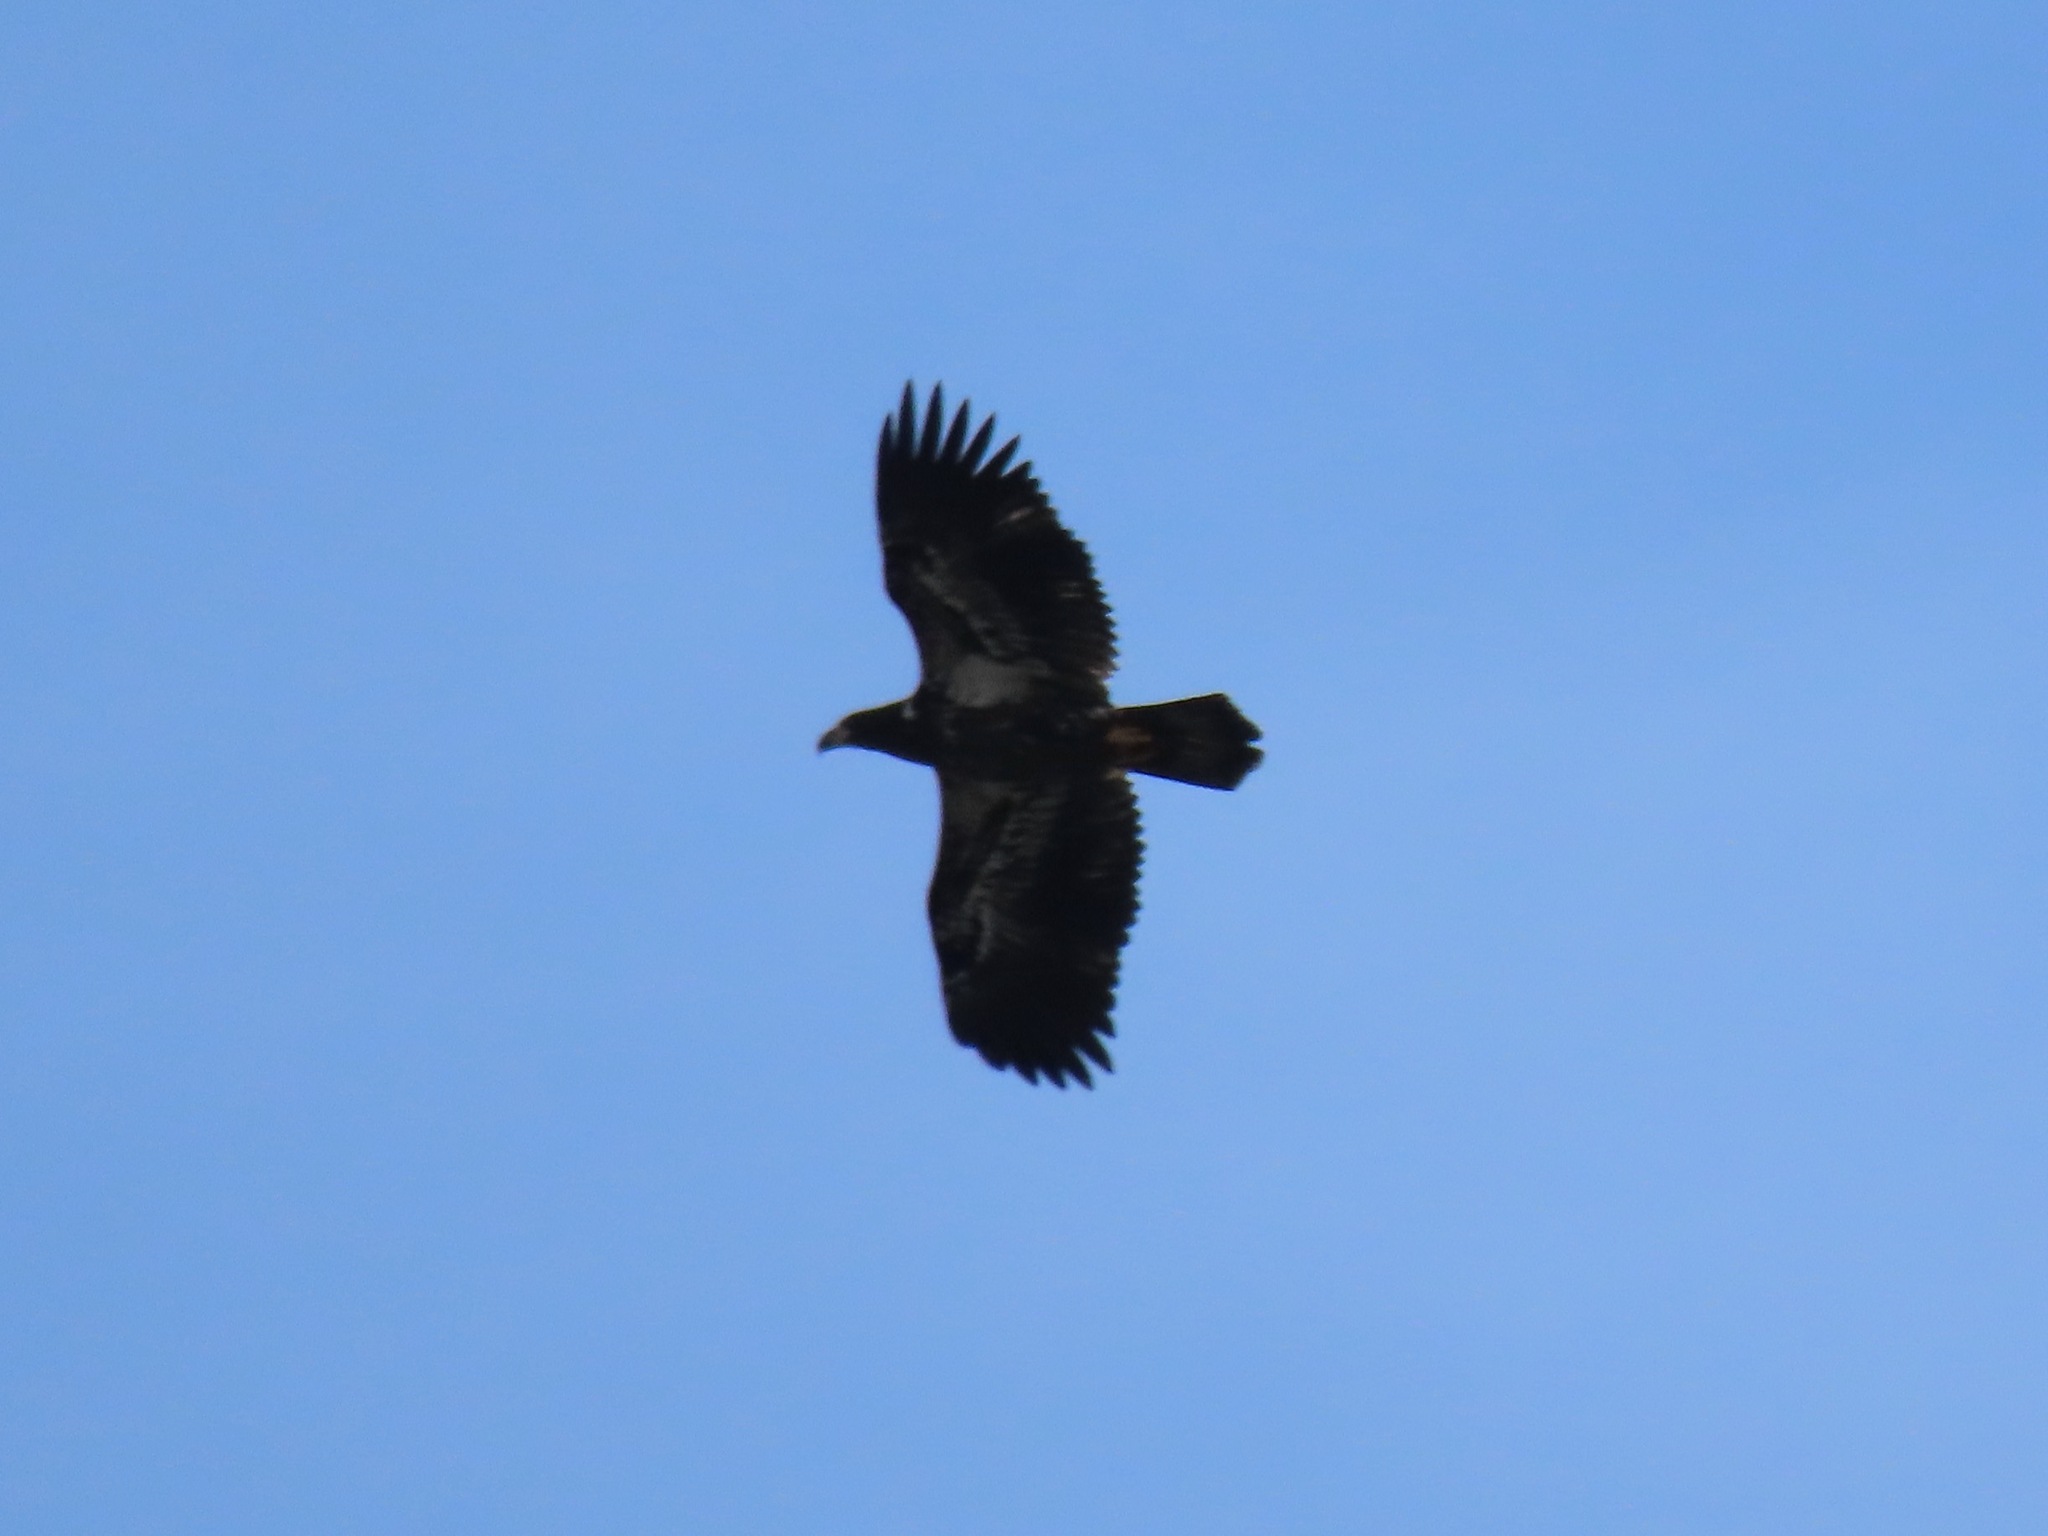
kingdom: Animalia
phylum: Chordata
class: Aves
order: Accipitriformes
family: Accipitridae
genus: Haliaeetus
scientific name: Haliaeetus leucocephalus
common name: Bald eagle
